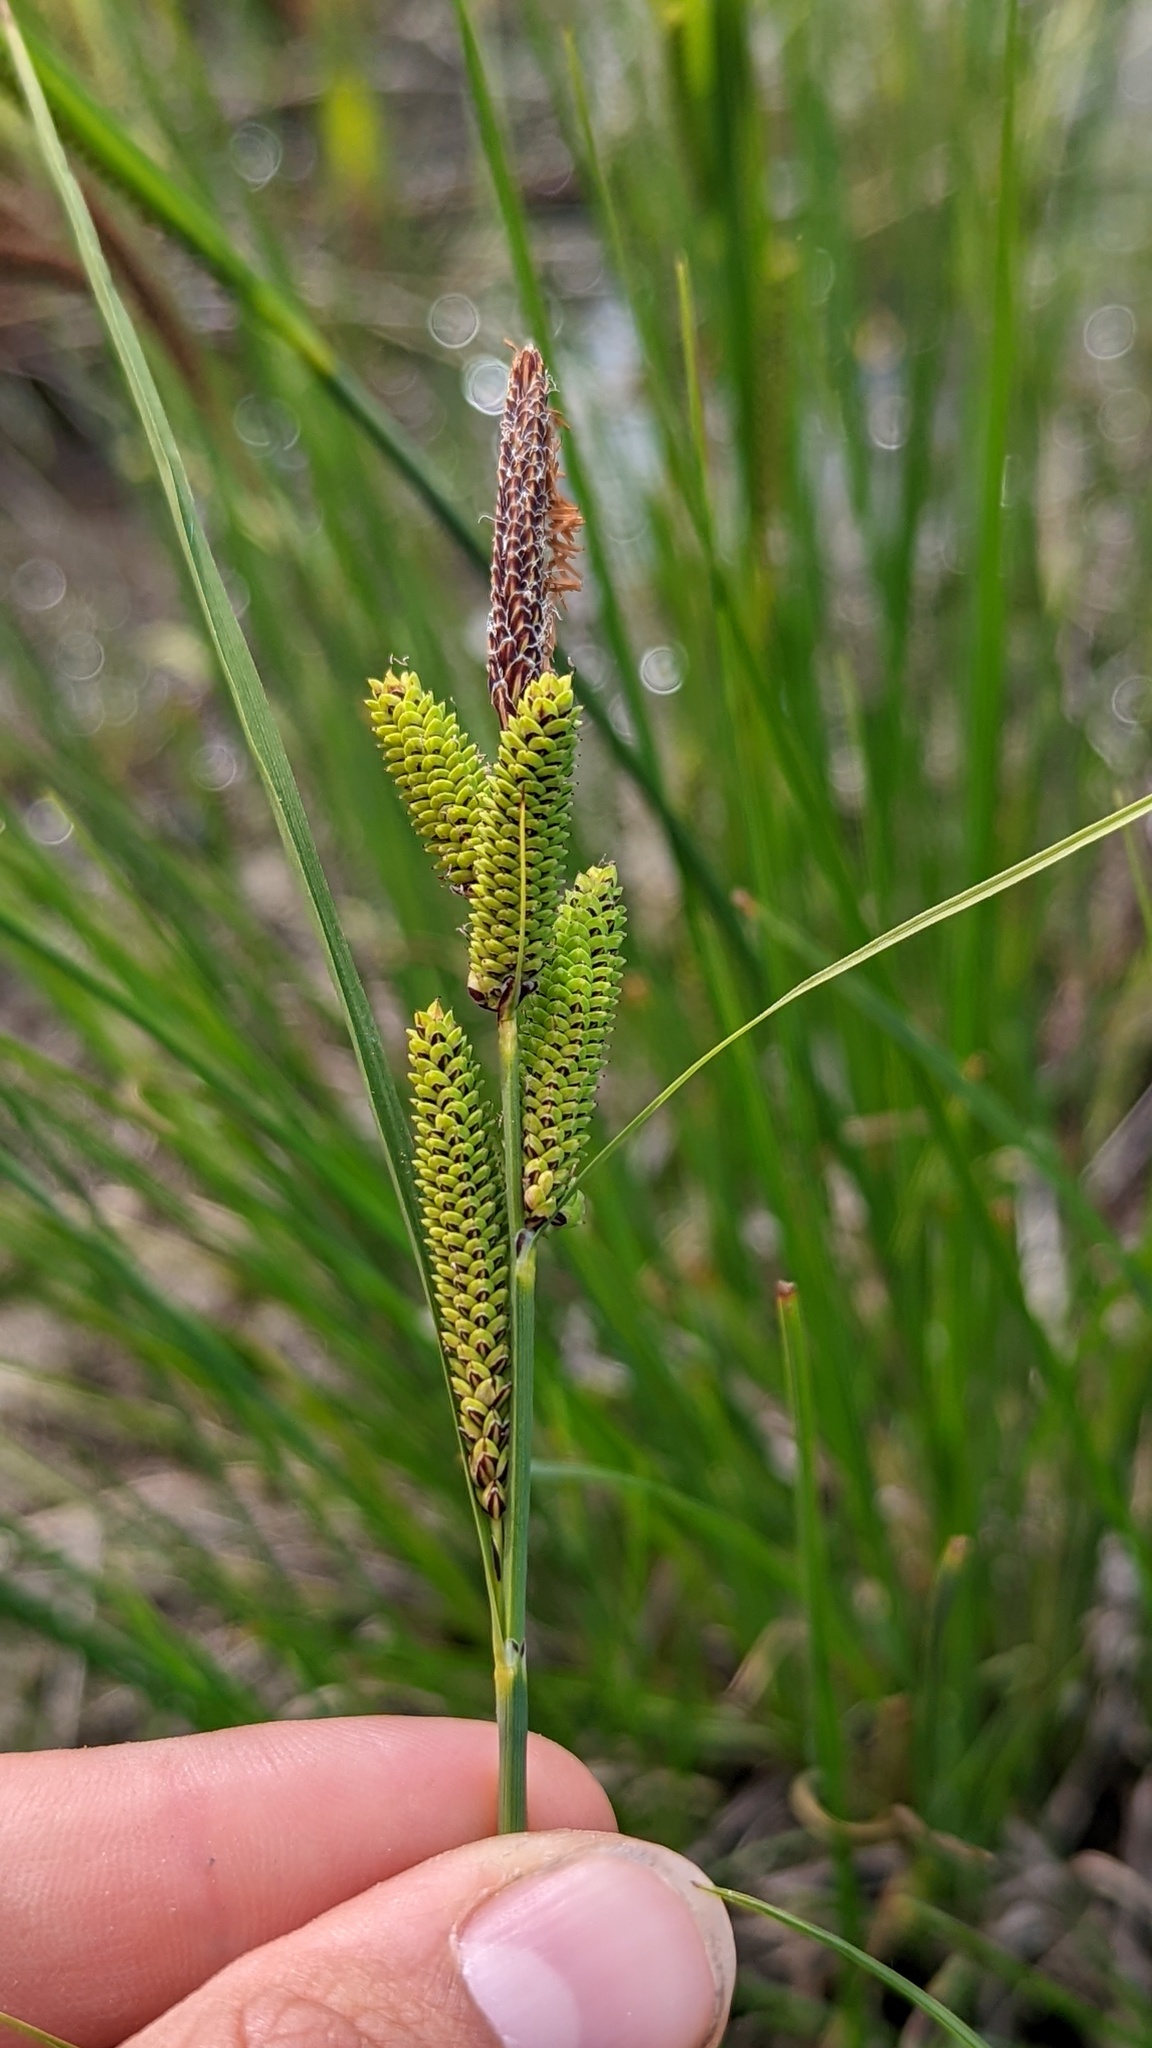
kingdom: Plantae
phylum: Tracheophyta
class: Liliopsida
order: Poales
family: Cyperaceae
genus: Carex
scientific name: Carex kelloggii
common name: Kellogg's sedge
